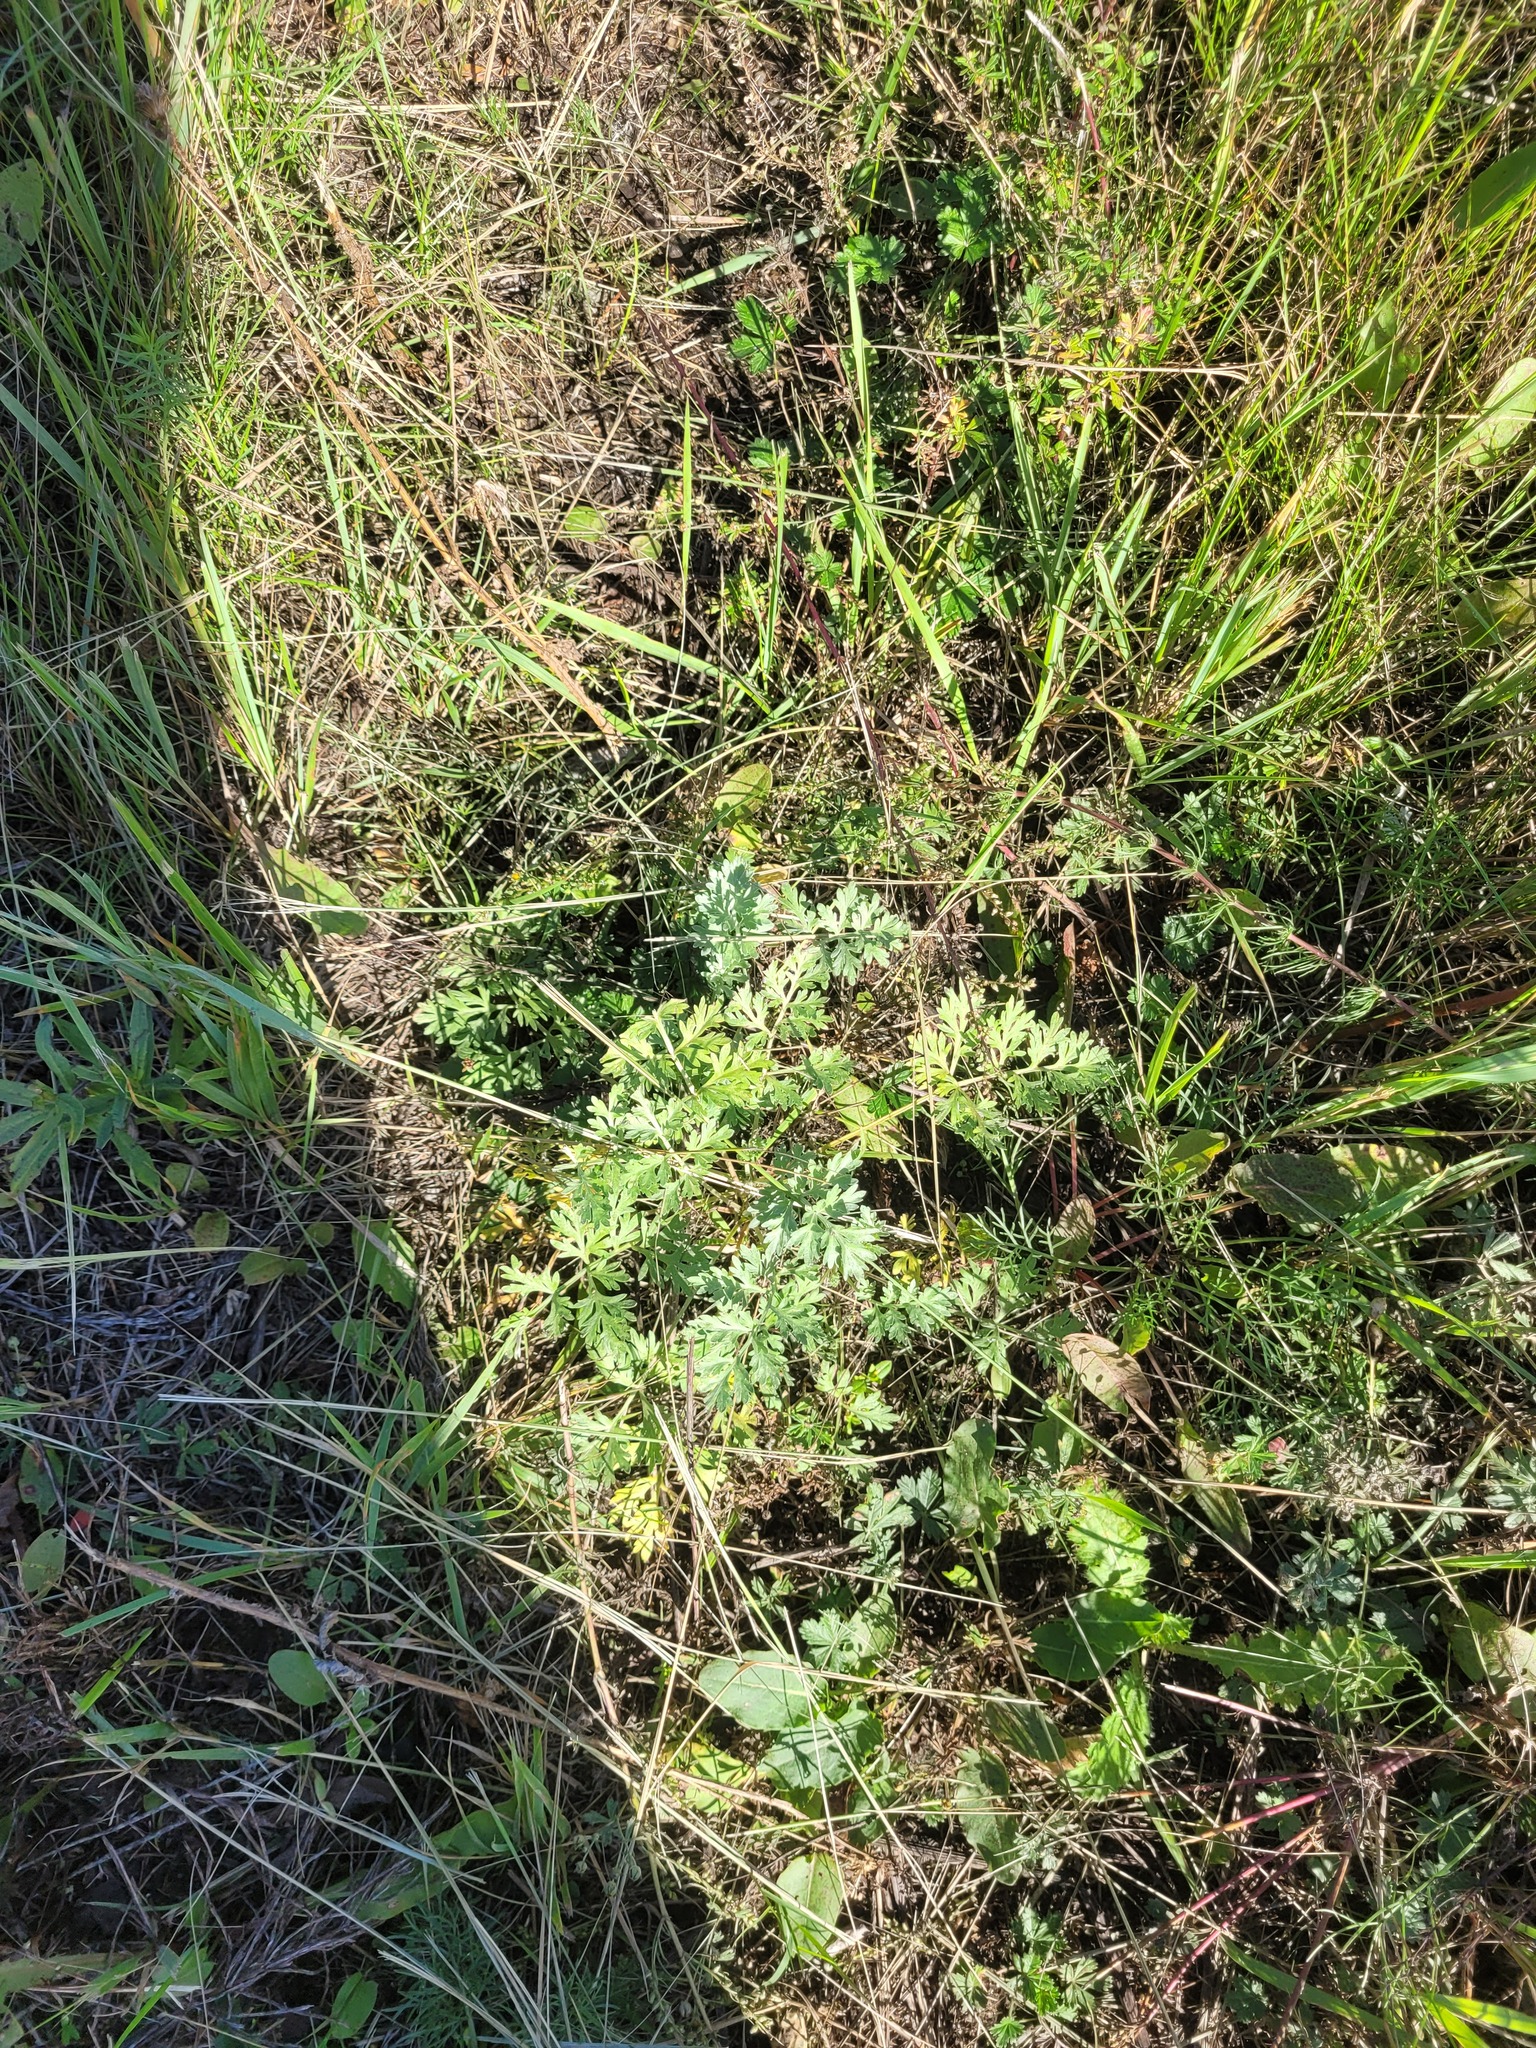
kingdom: Plantae
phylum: Tracheophyta
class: Magnoliopsida
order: Asterales
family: Asteraceae
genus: Artemisia
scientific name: Artemisia absinthium
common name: Wormwood
